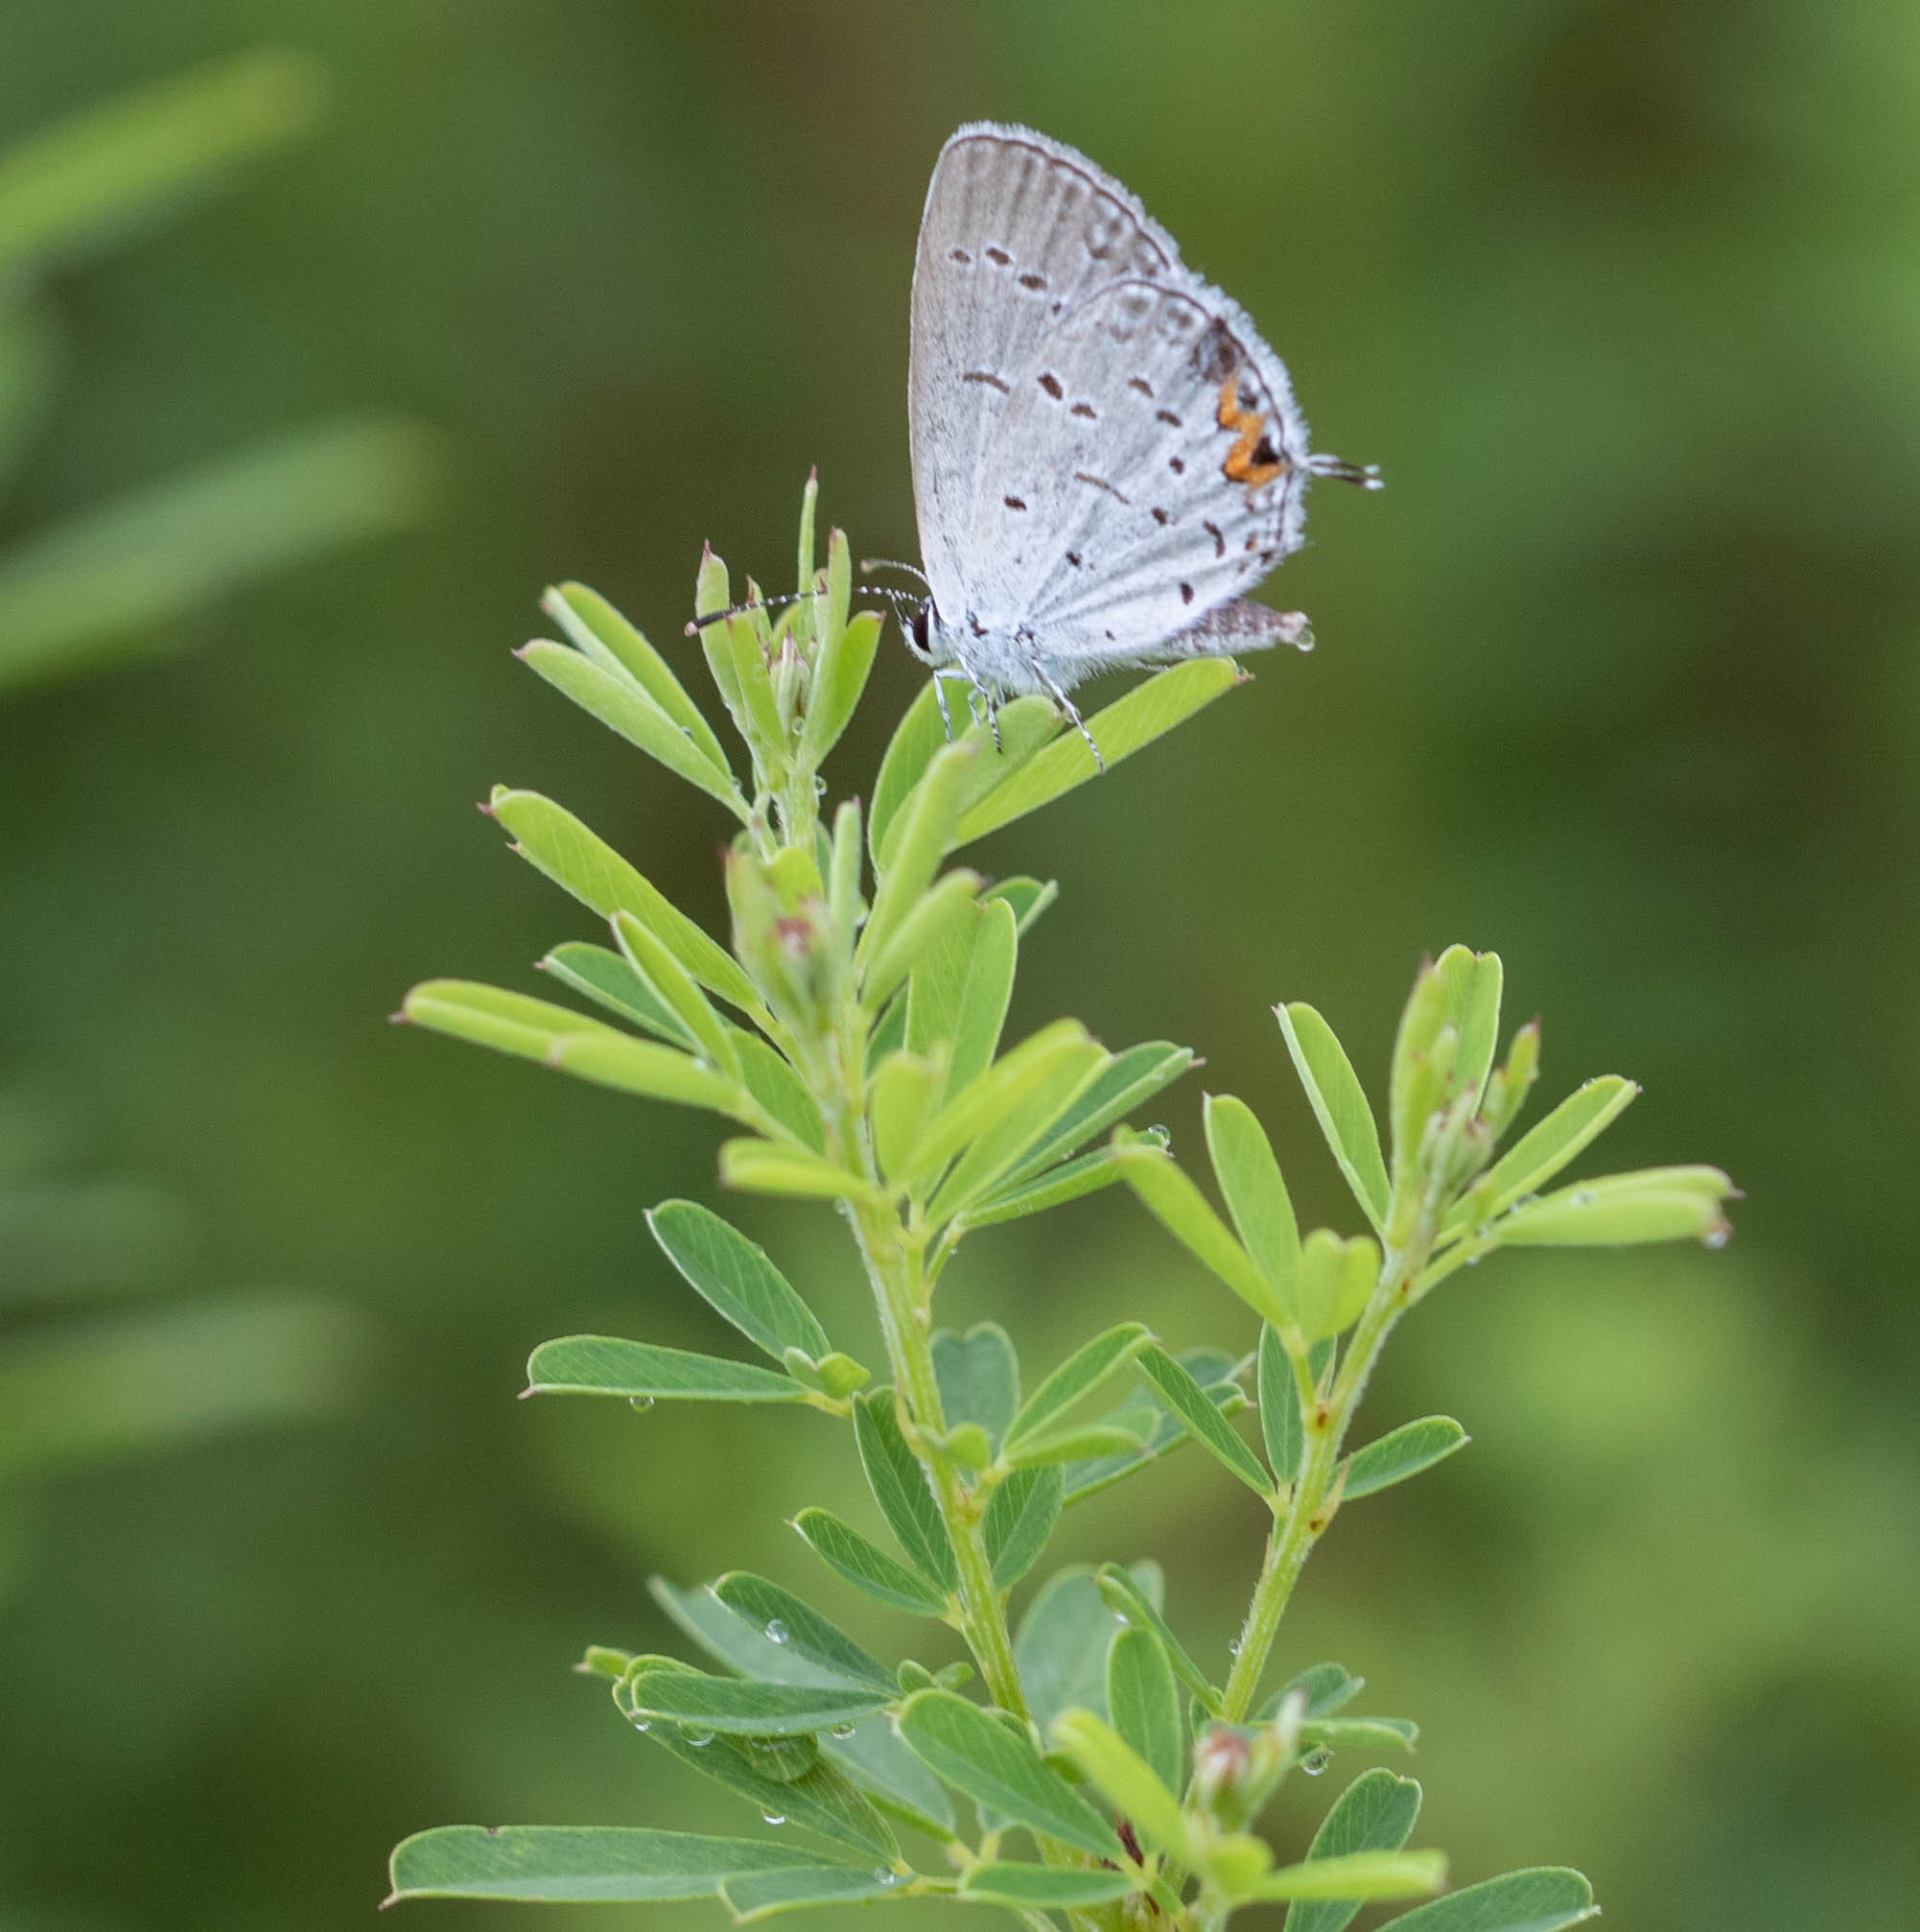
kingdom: Animalia
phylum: Arthropoda
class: Insecta
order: Lepidoptera
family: Lycaenidae
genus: Elkalyce
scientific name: Elkalyce comyntas
